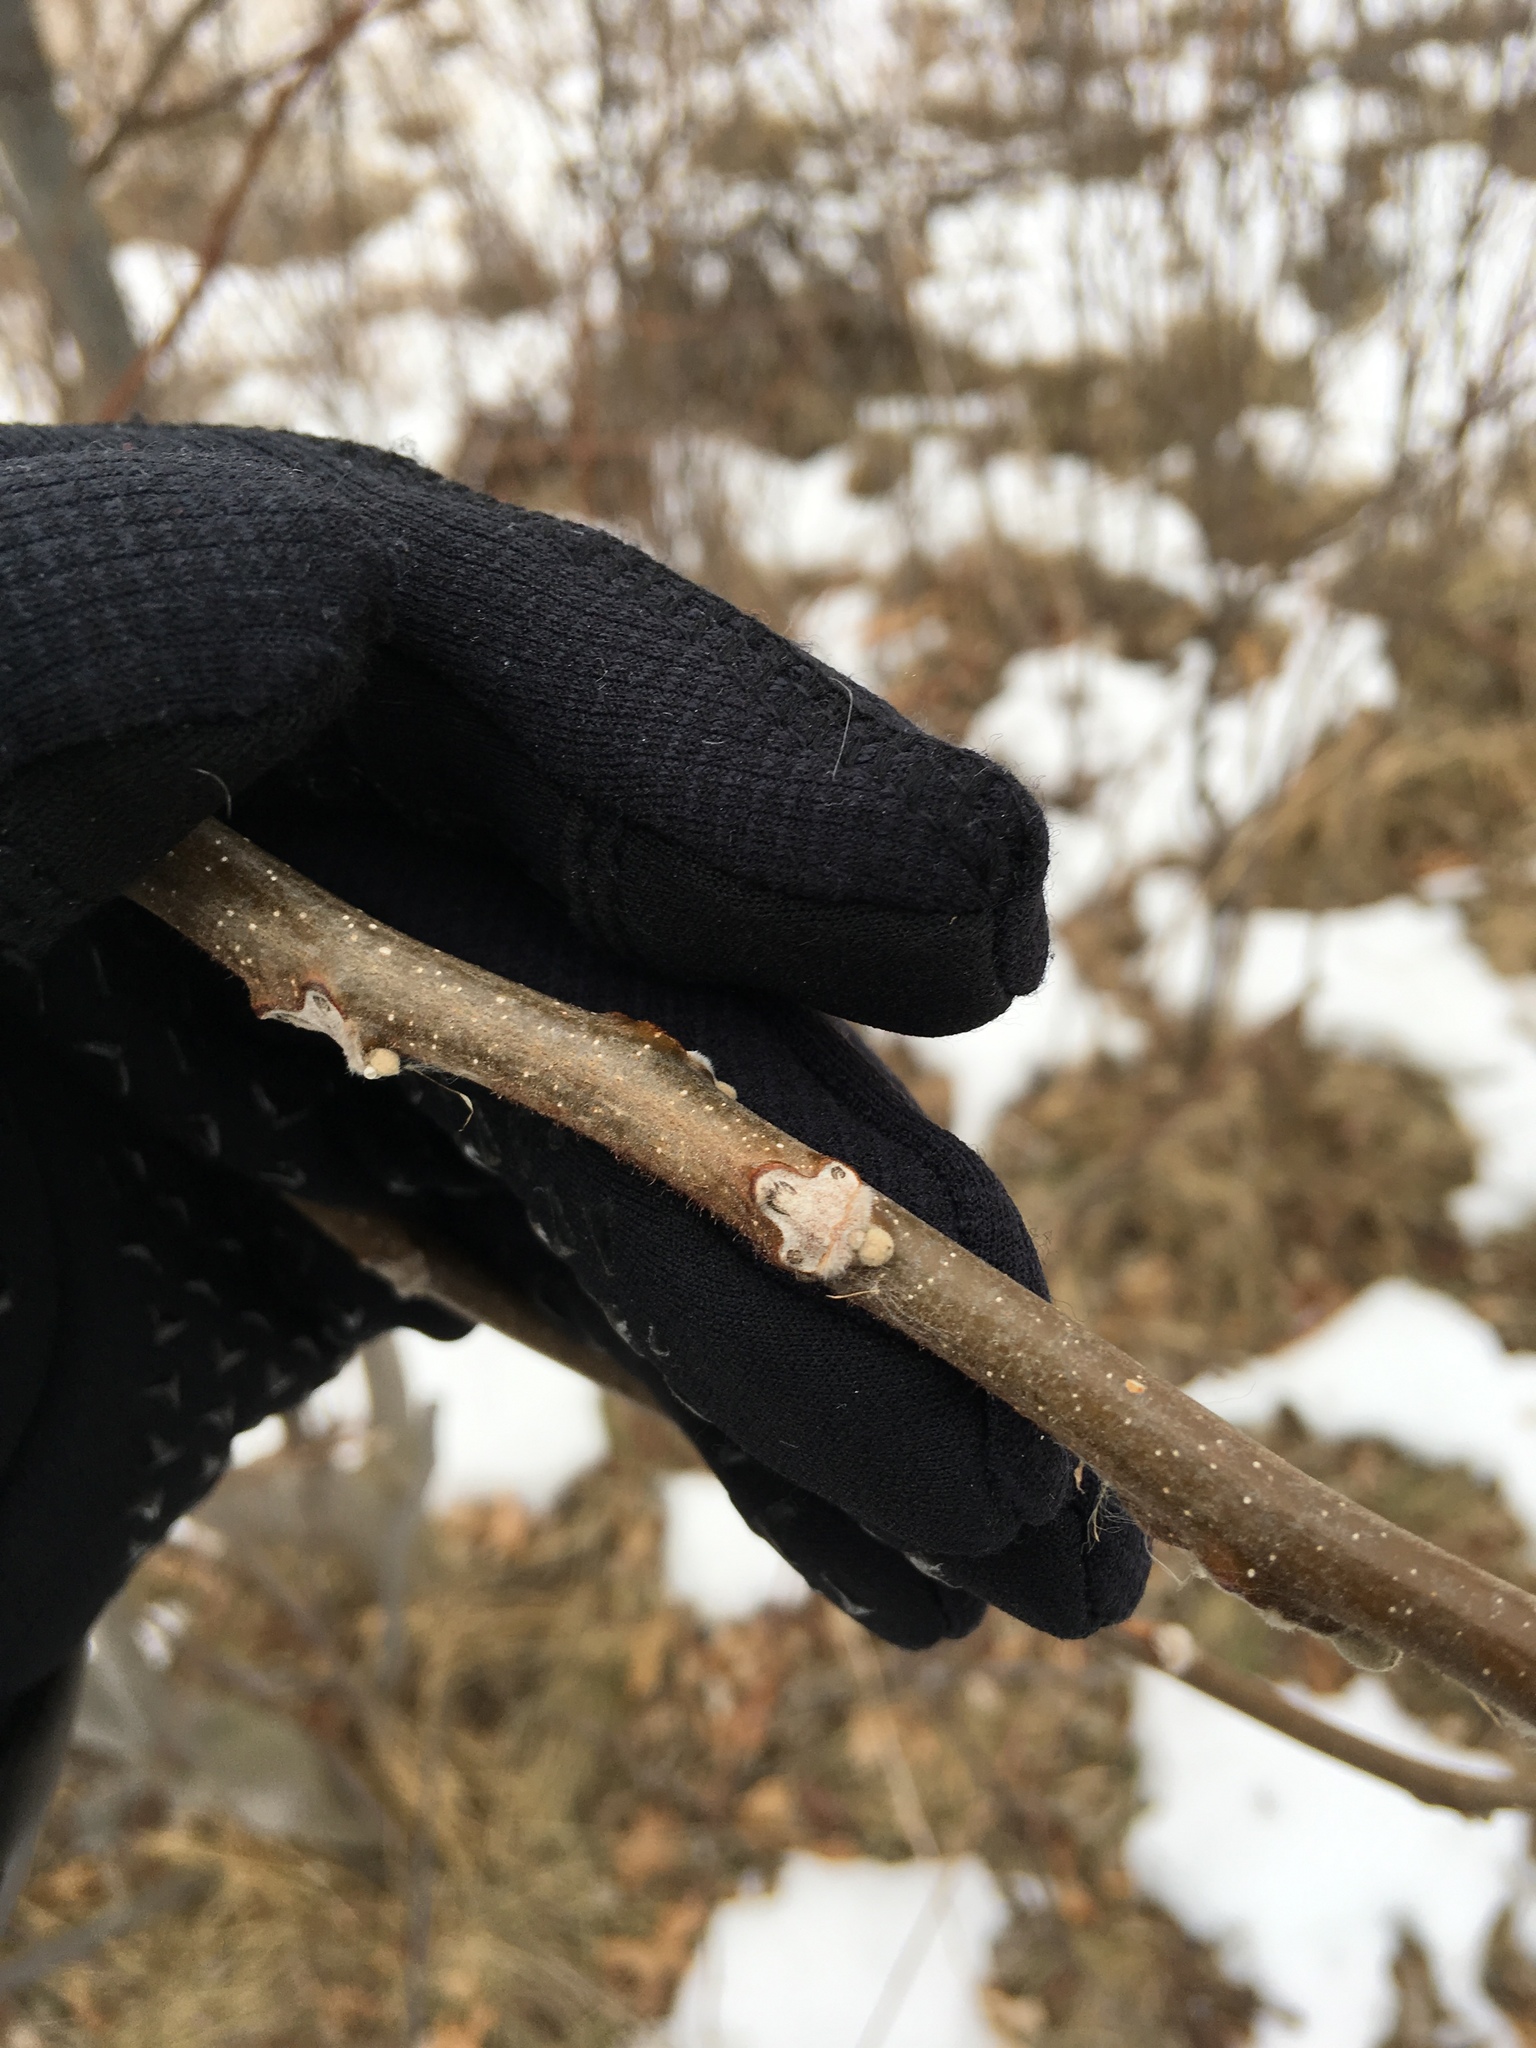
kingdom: Plantae
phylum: Tracheophyta
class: Magnoliopsida
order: Fagales
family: Juglandaceae
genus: Juglans
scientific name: Juglans cinerea
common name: Butternut
